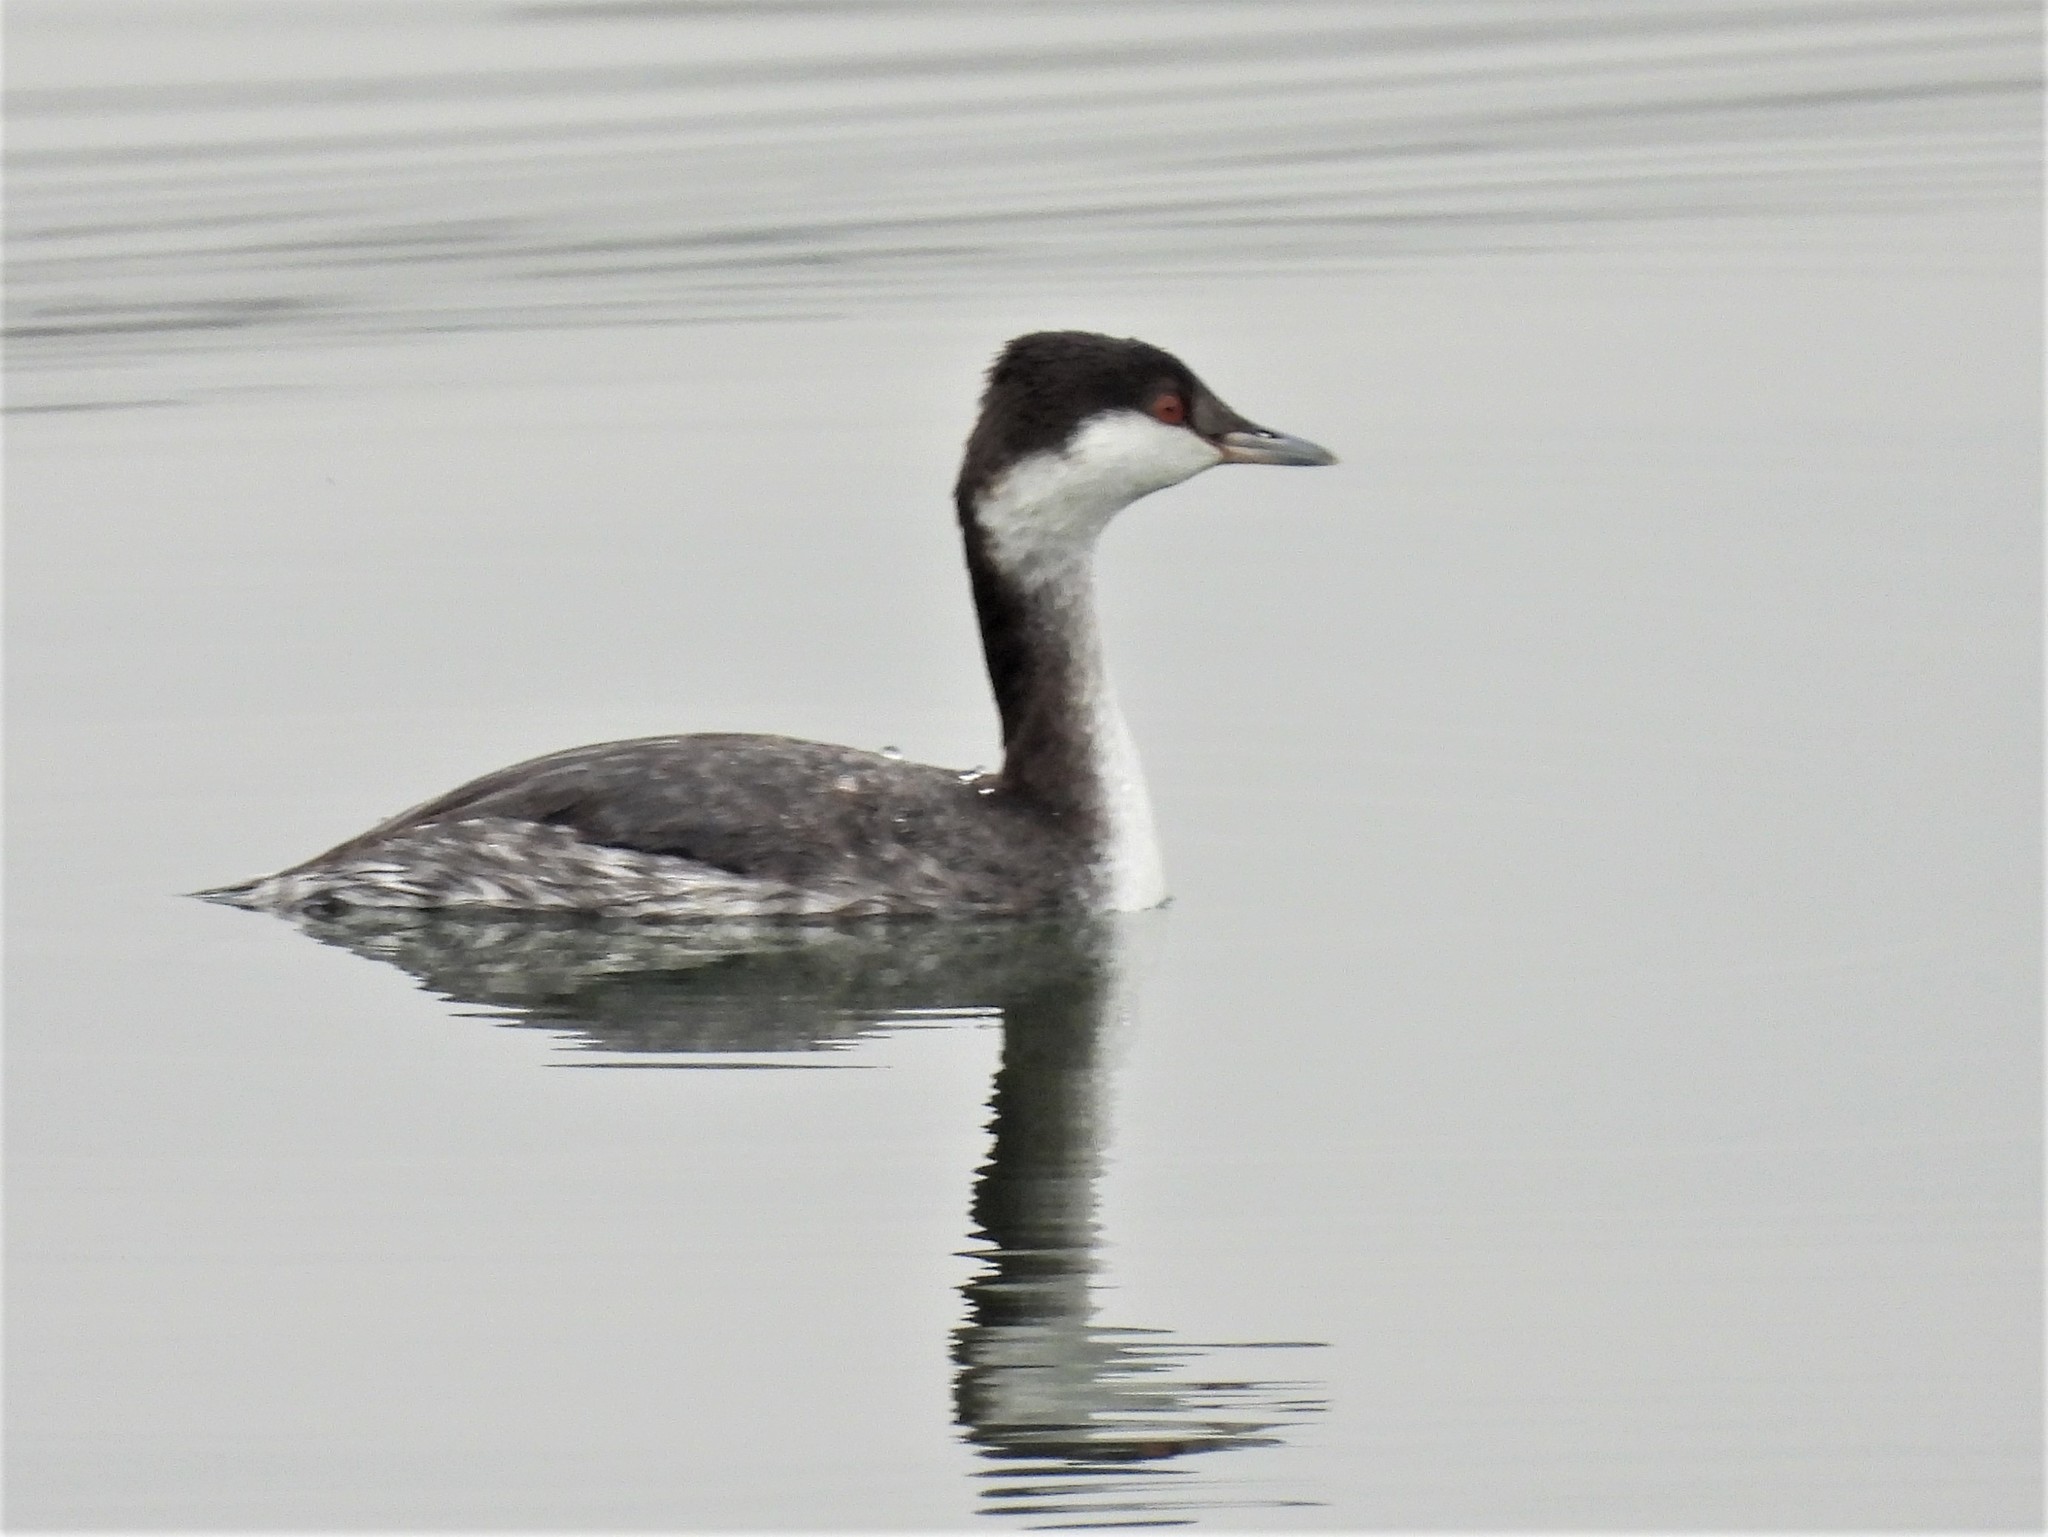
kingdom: Animalia
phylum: Chordata
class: Aves
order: Podicipediformes
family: Podicipedidae
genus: Podiceps
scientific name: Podiceps auritus
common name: Horned grebe
